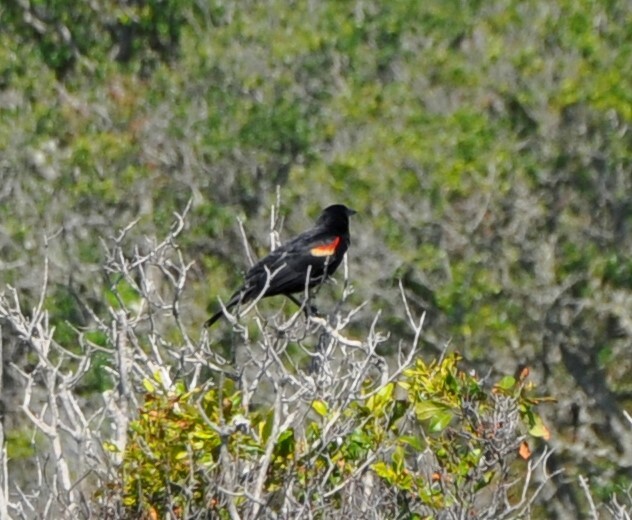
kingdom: Animalia
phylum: Chordata
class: Aves
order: Passeriformes
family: Icteridae
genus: Agelaius
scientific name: Agelaius phoeniceus
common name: Red-winged blackbird
